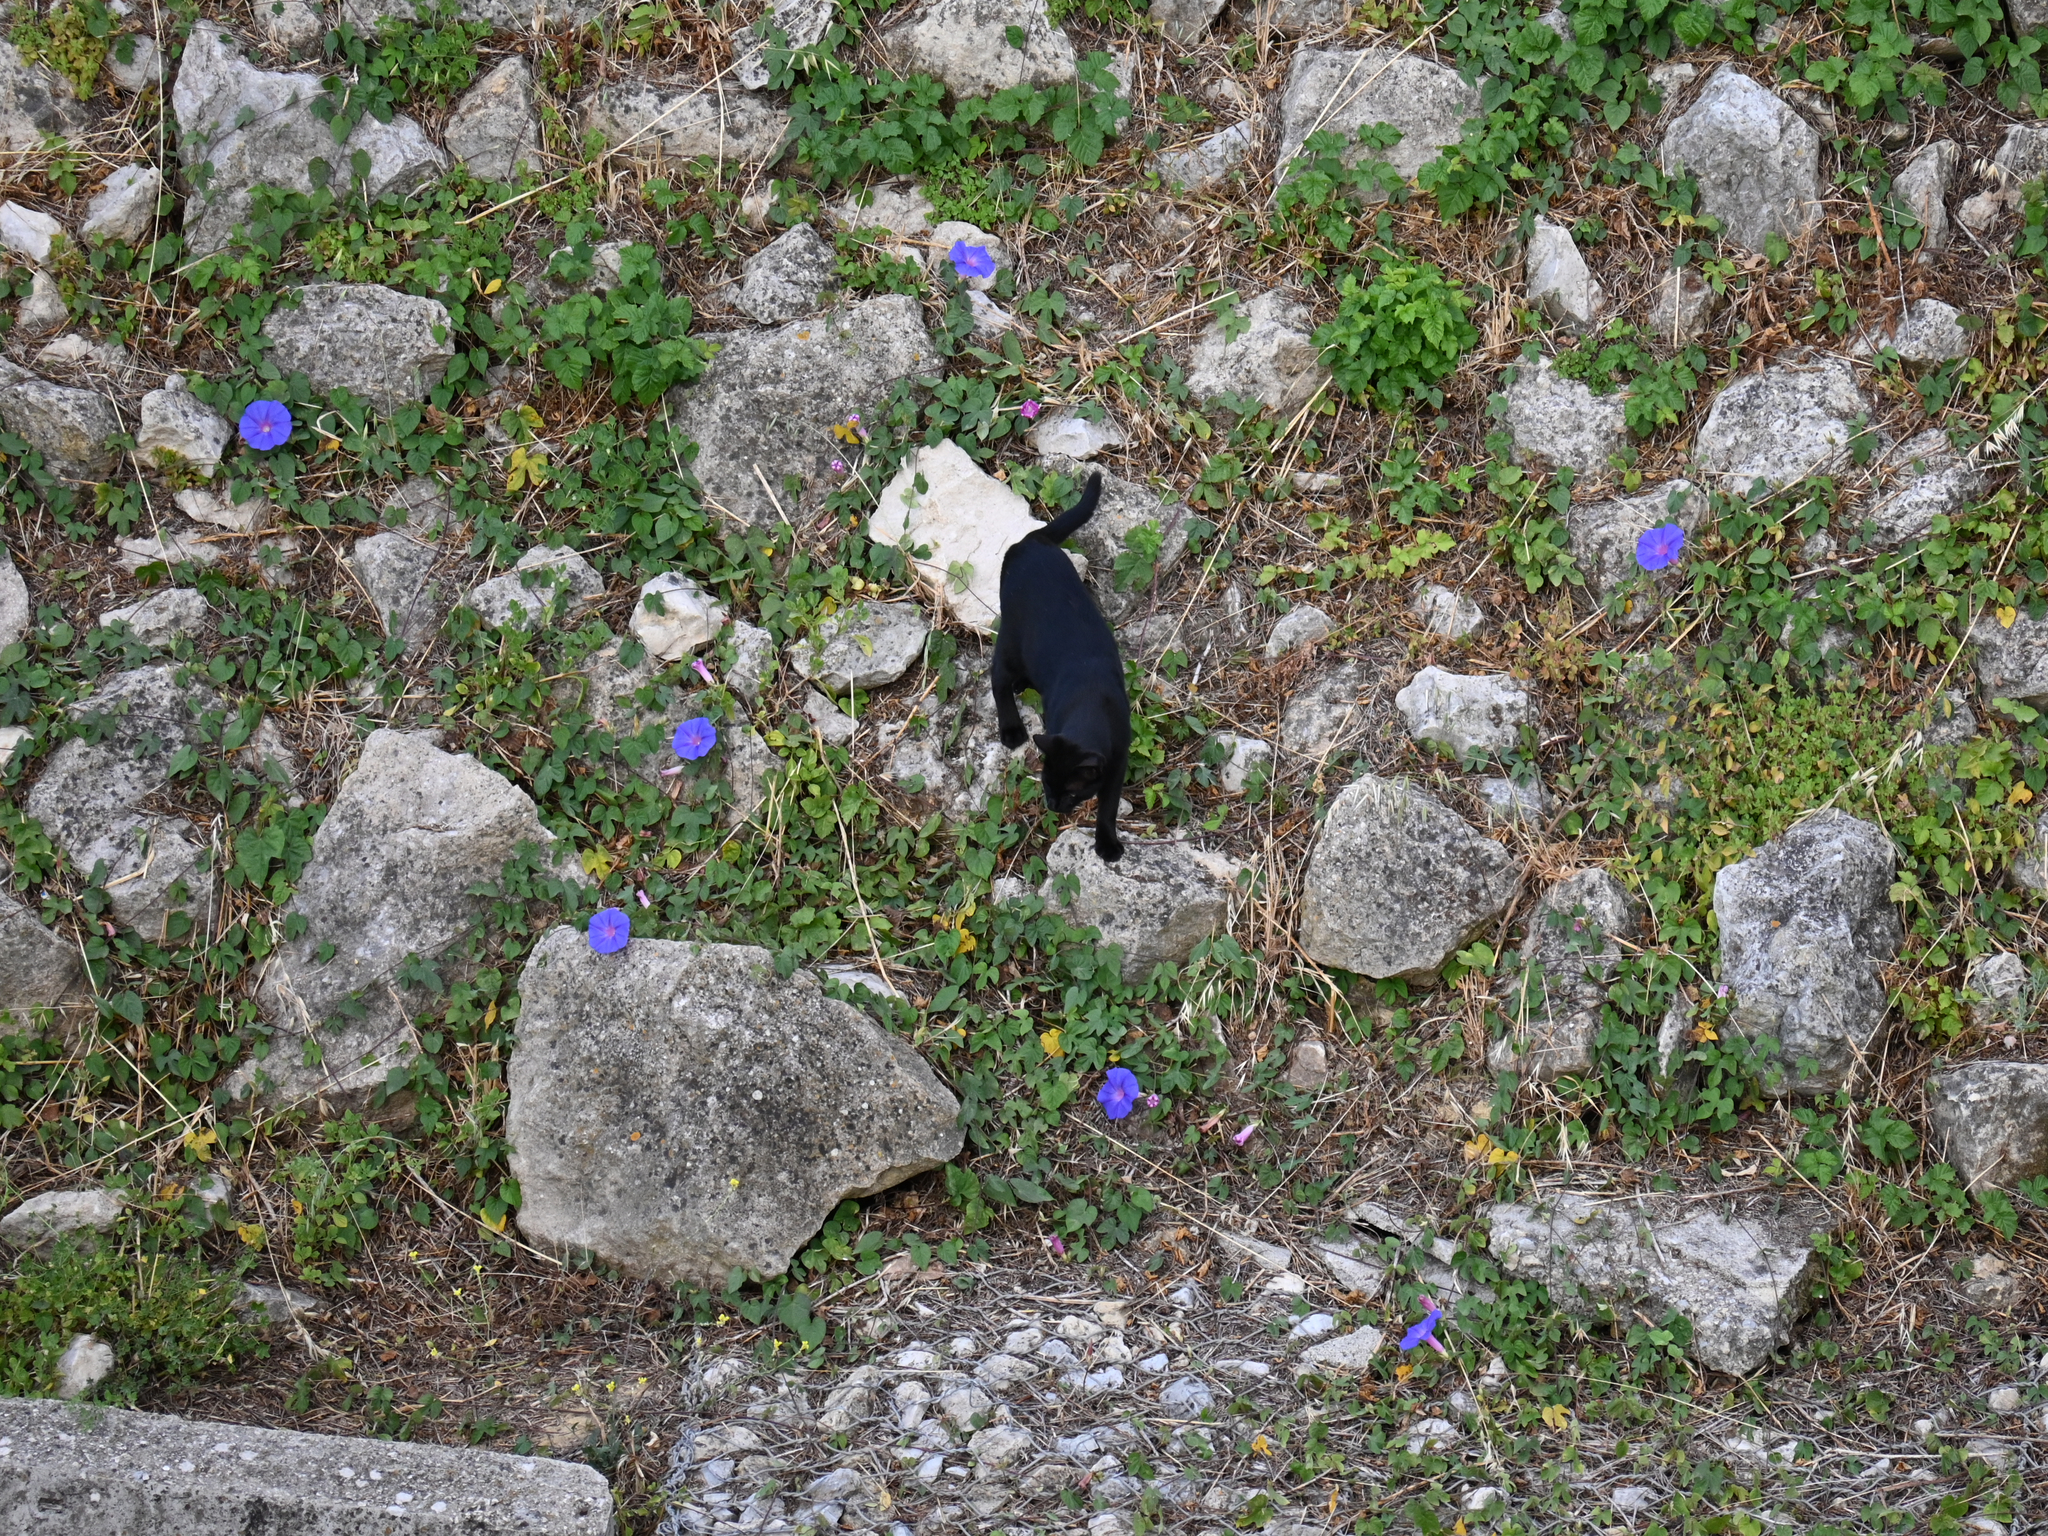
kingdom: Animalia
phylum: Chordata
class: Mammalia
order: Carnivora
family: Felidae
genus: Felis
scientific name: Felis catus
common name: Domestic cat
